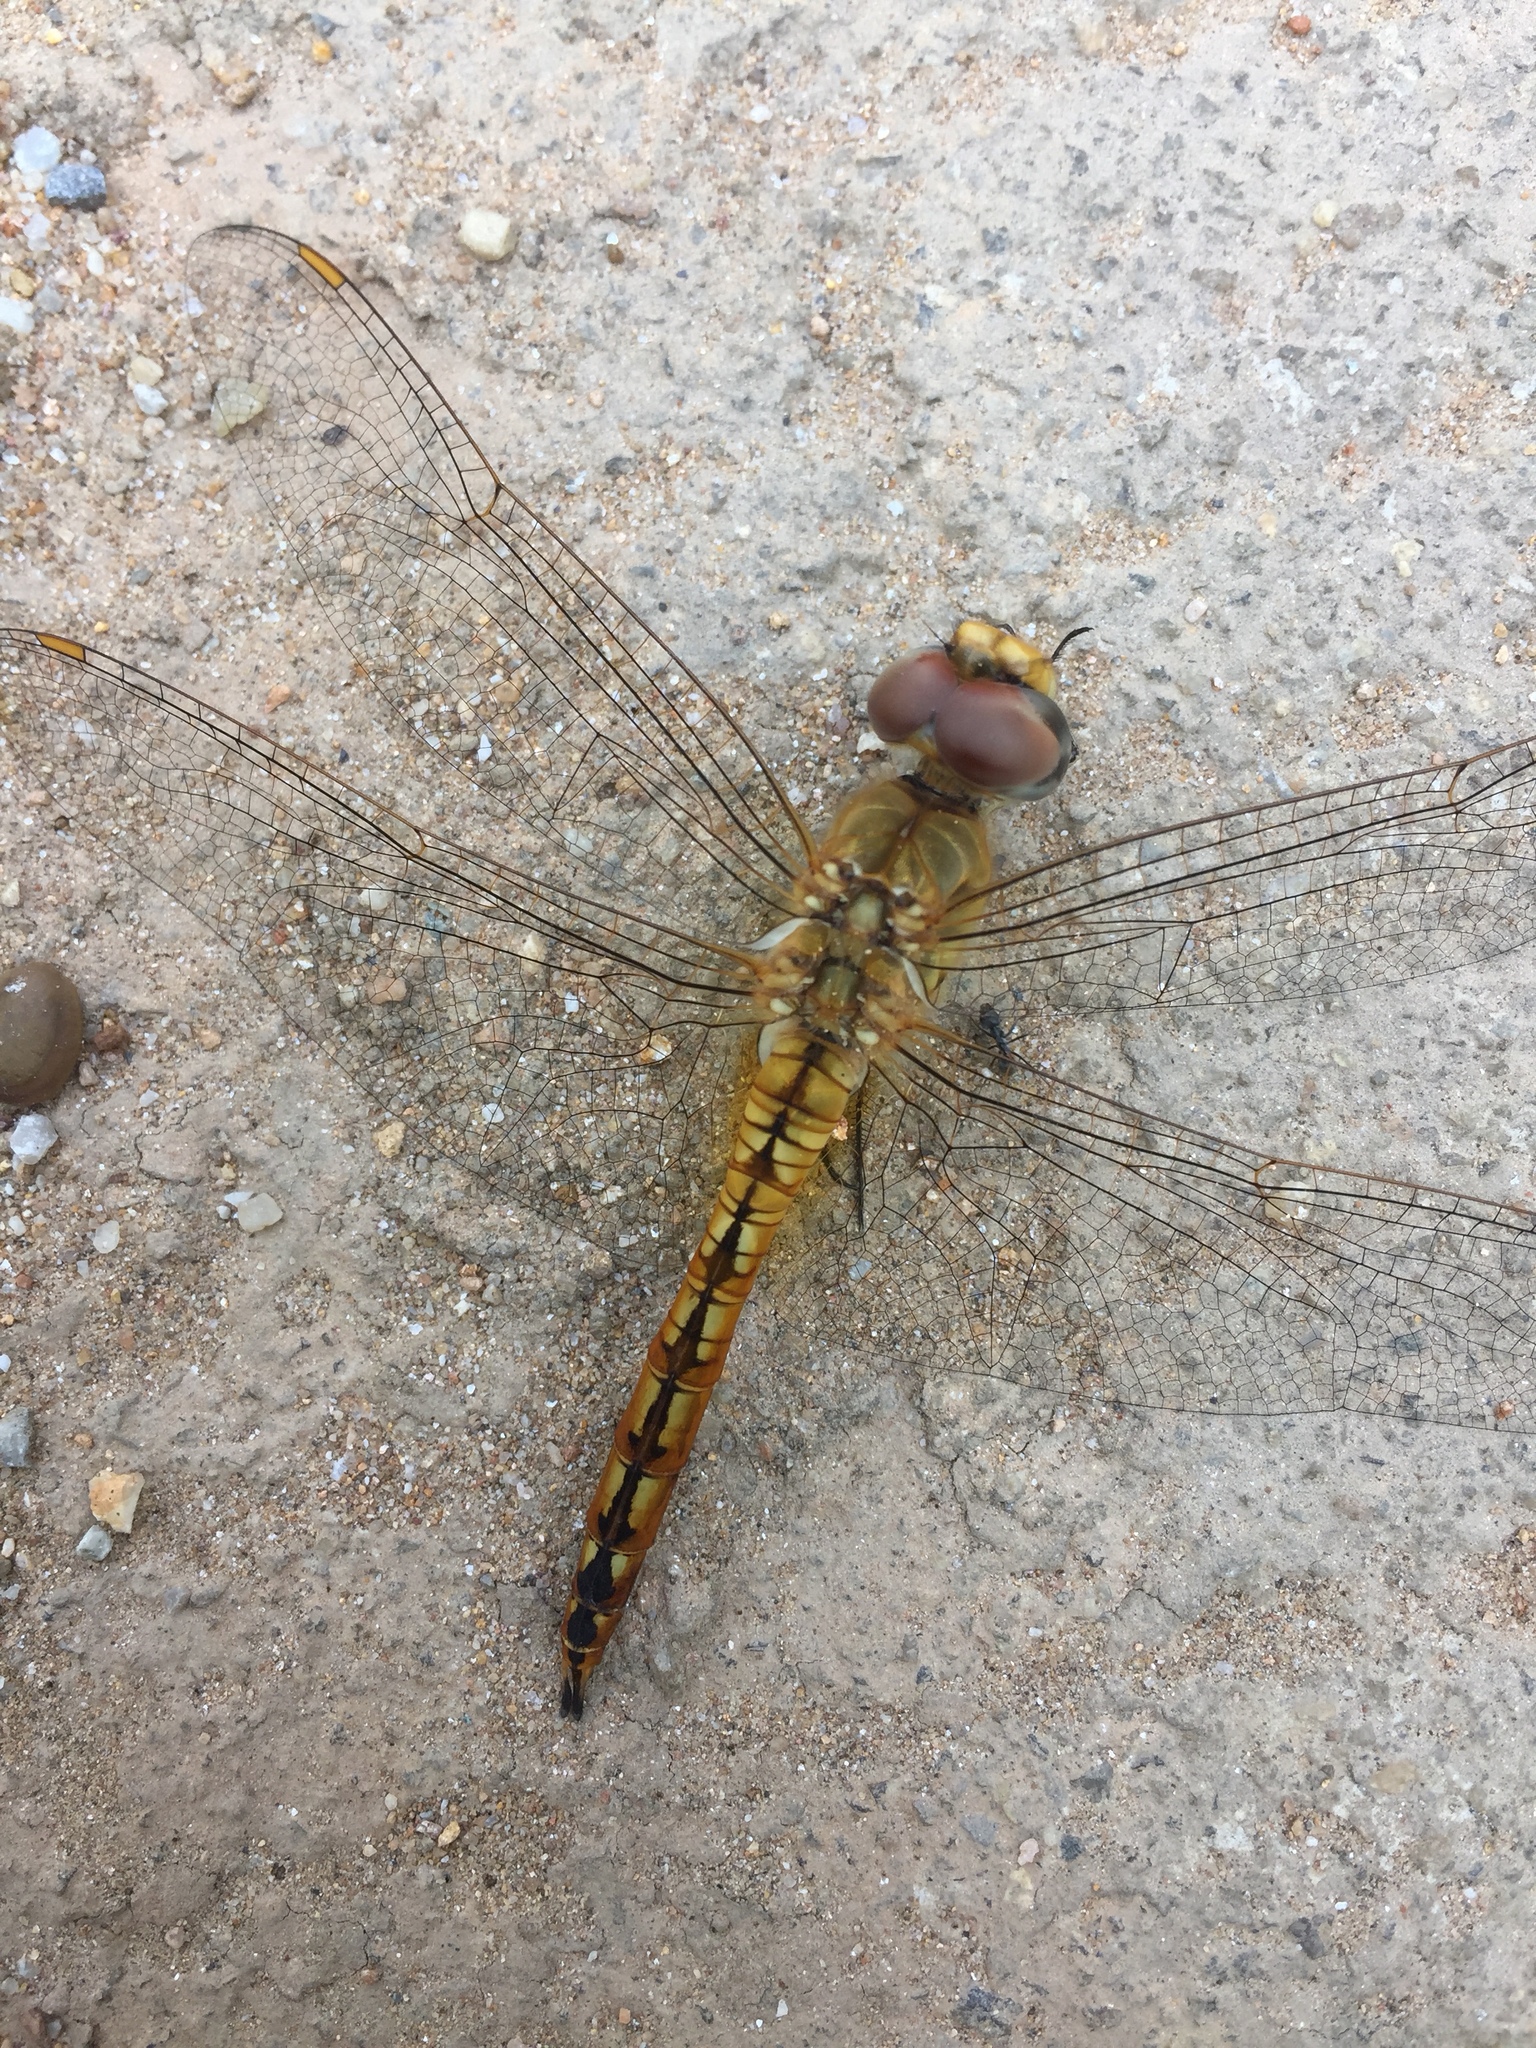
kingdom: Animalia
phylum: Arthropoda
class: Insecta
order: Odonata
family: Libellulidae
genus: Pantala
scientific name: Pantala flavescens
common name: Wandering glider
